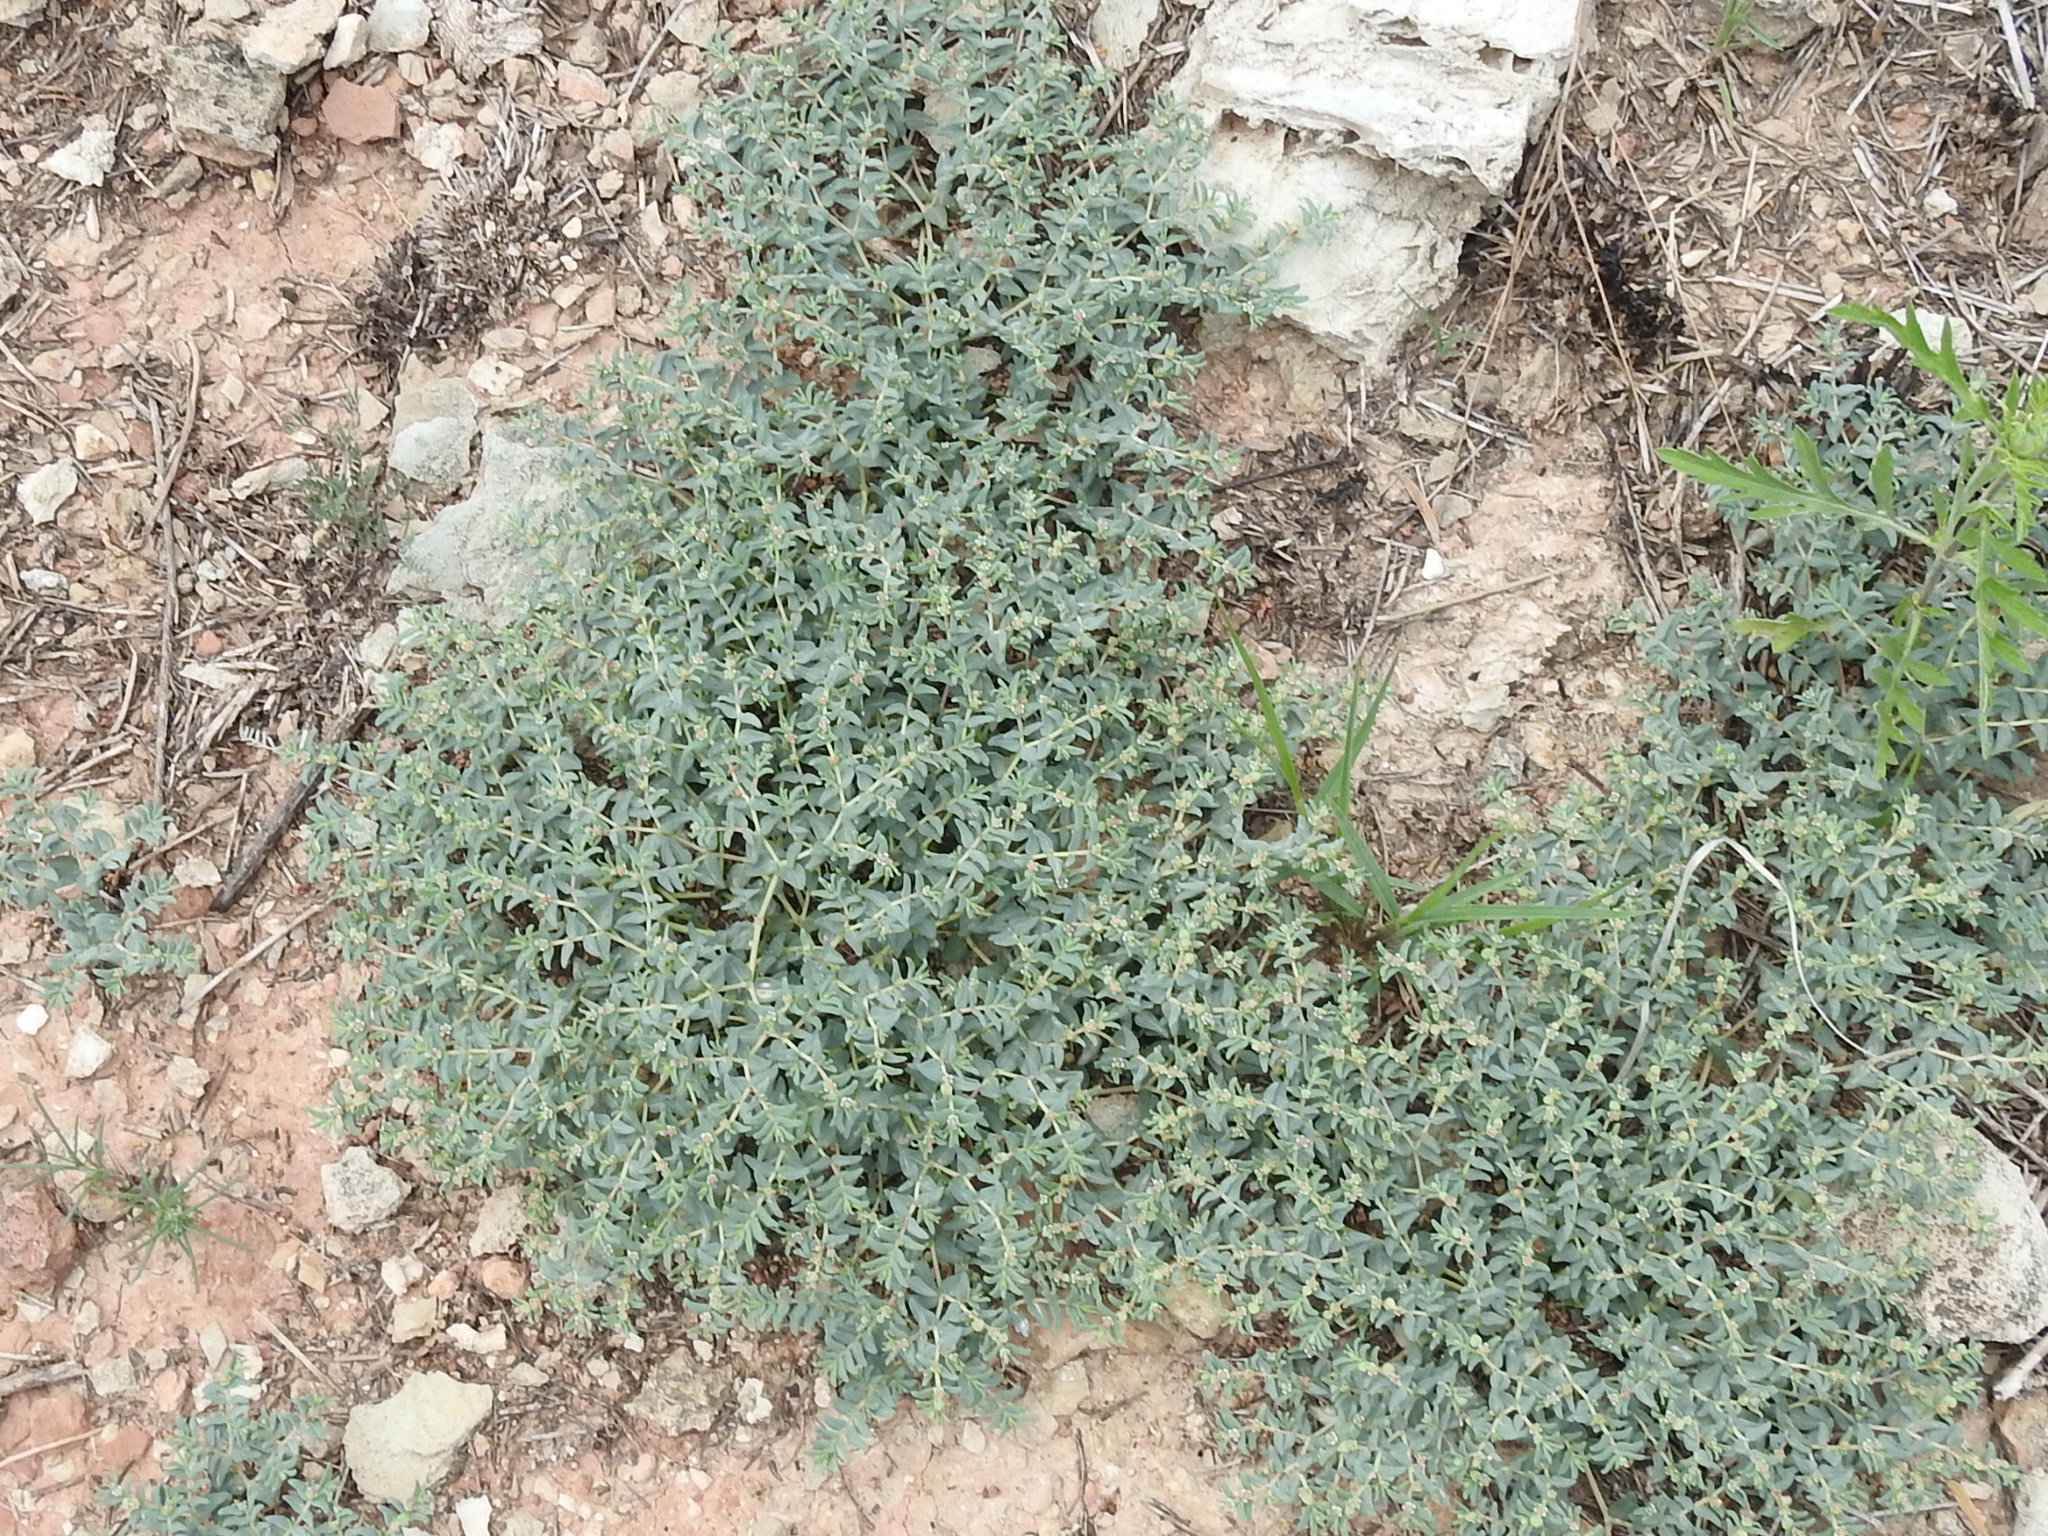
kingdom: Plantae
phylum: Tracheophyta
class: Magnoliopsida
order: Malpighiales
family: Euphorbiaceae
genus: Euphorbia
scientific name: Euphorbia lata
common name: Hoary euphorbia
